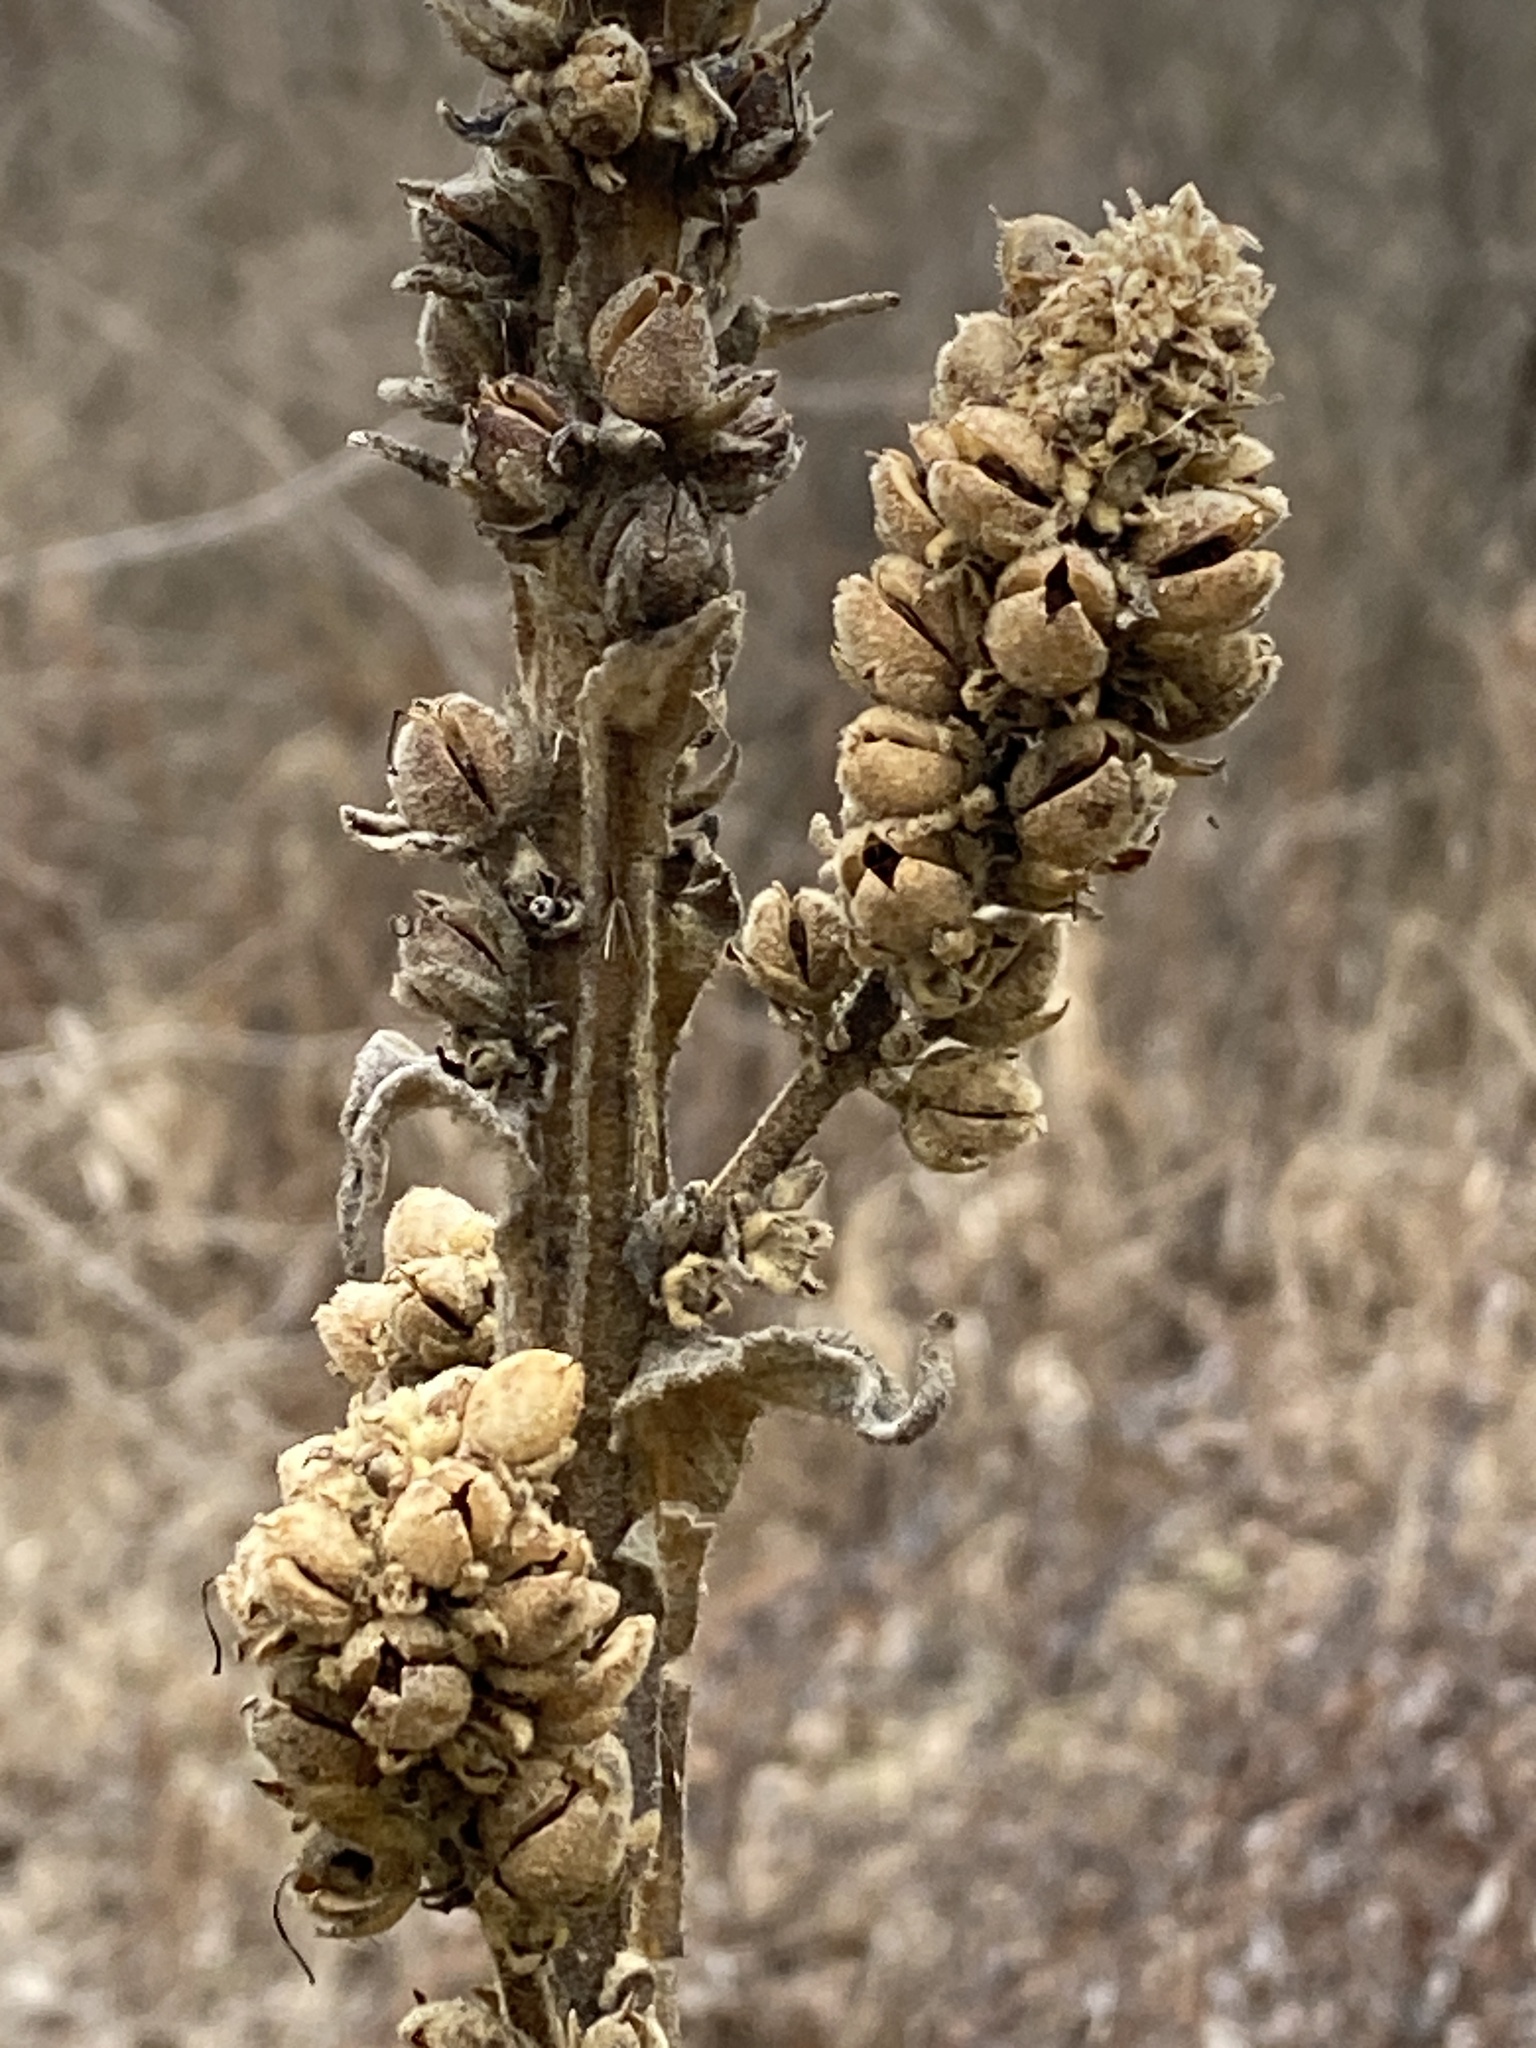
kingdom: Plantae
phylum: Tracheophyta
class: Magnoliopsida
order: Lamiales
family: Scrophulariaceae
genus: Verbascum
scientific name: Verbascum thapsus
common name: Common mullein
